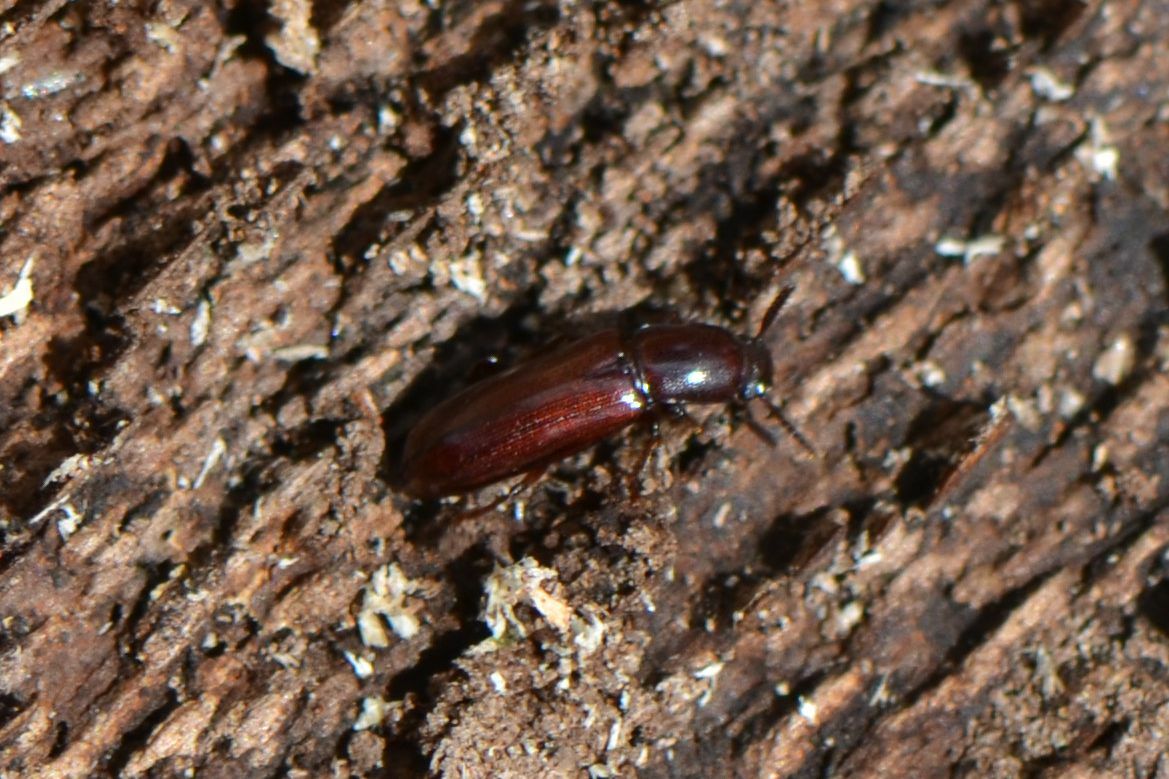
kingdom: Animalia
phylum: Arthropoda
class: Insecta
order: Coleoptera
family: Tenebrionidae
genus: Corticeus
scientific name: Corticeus unicolor
